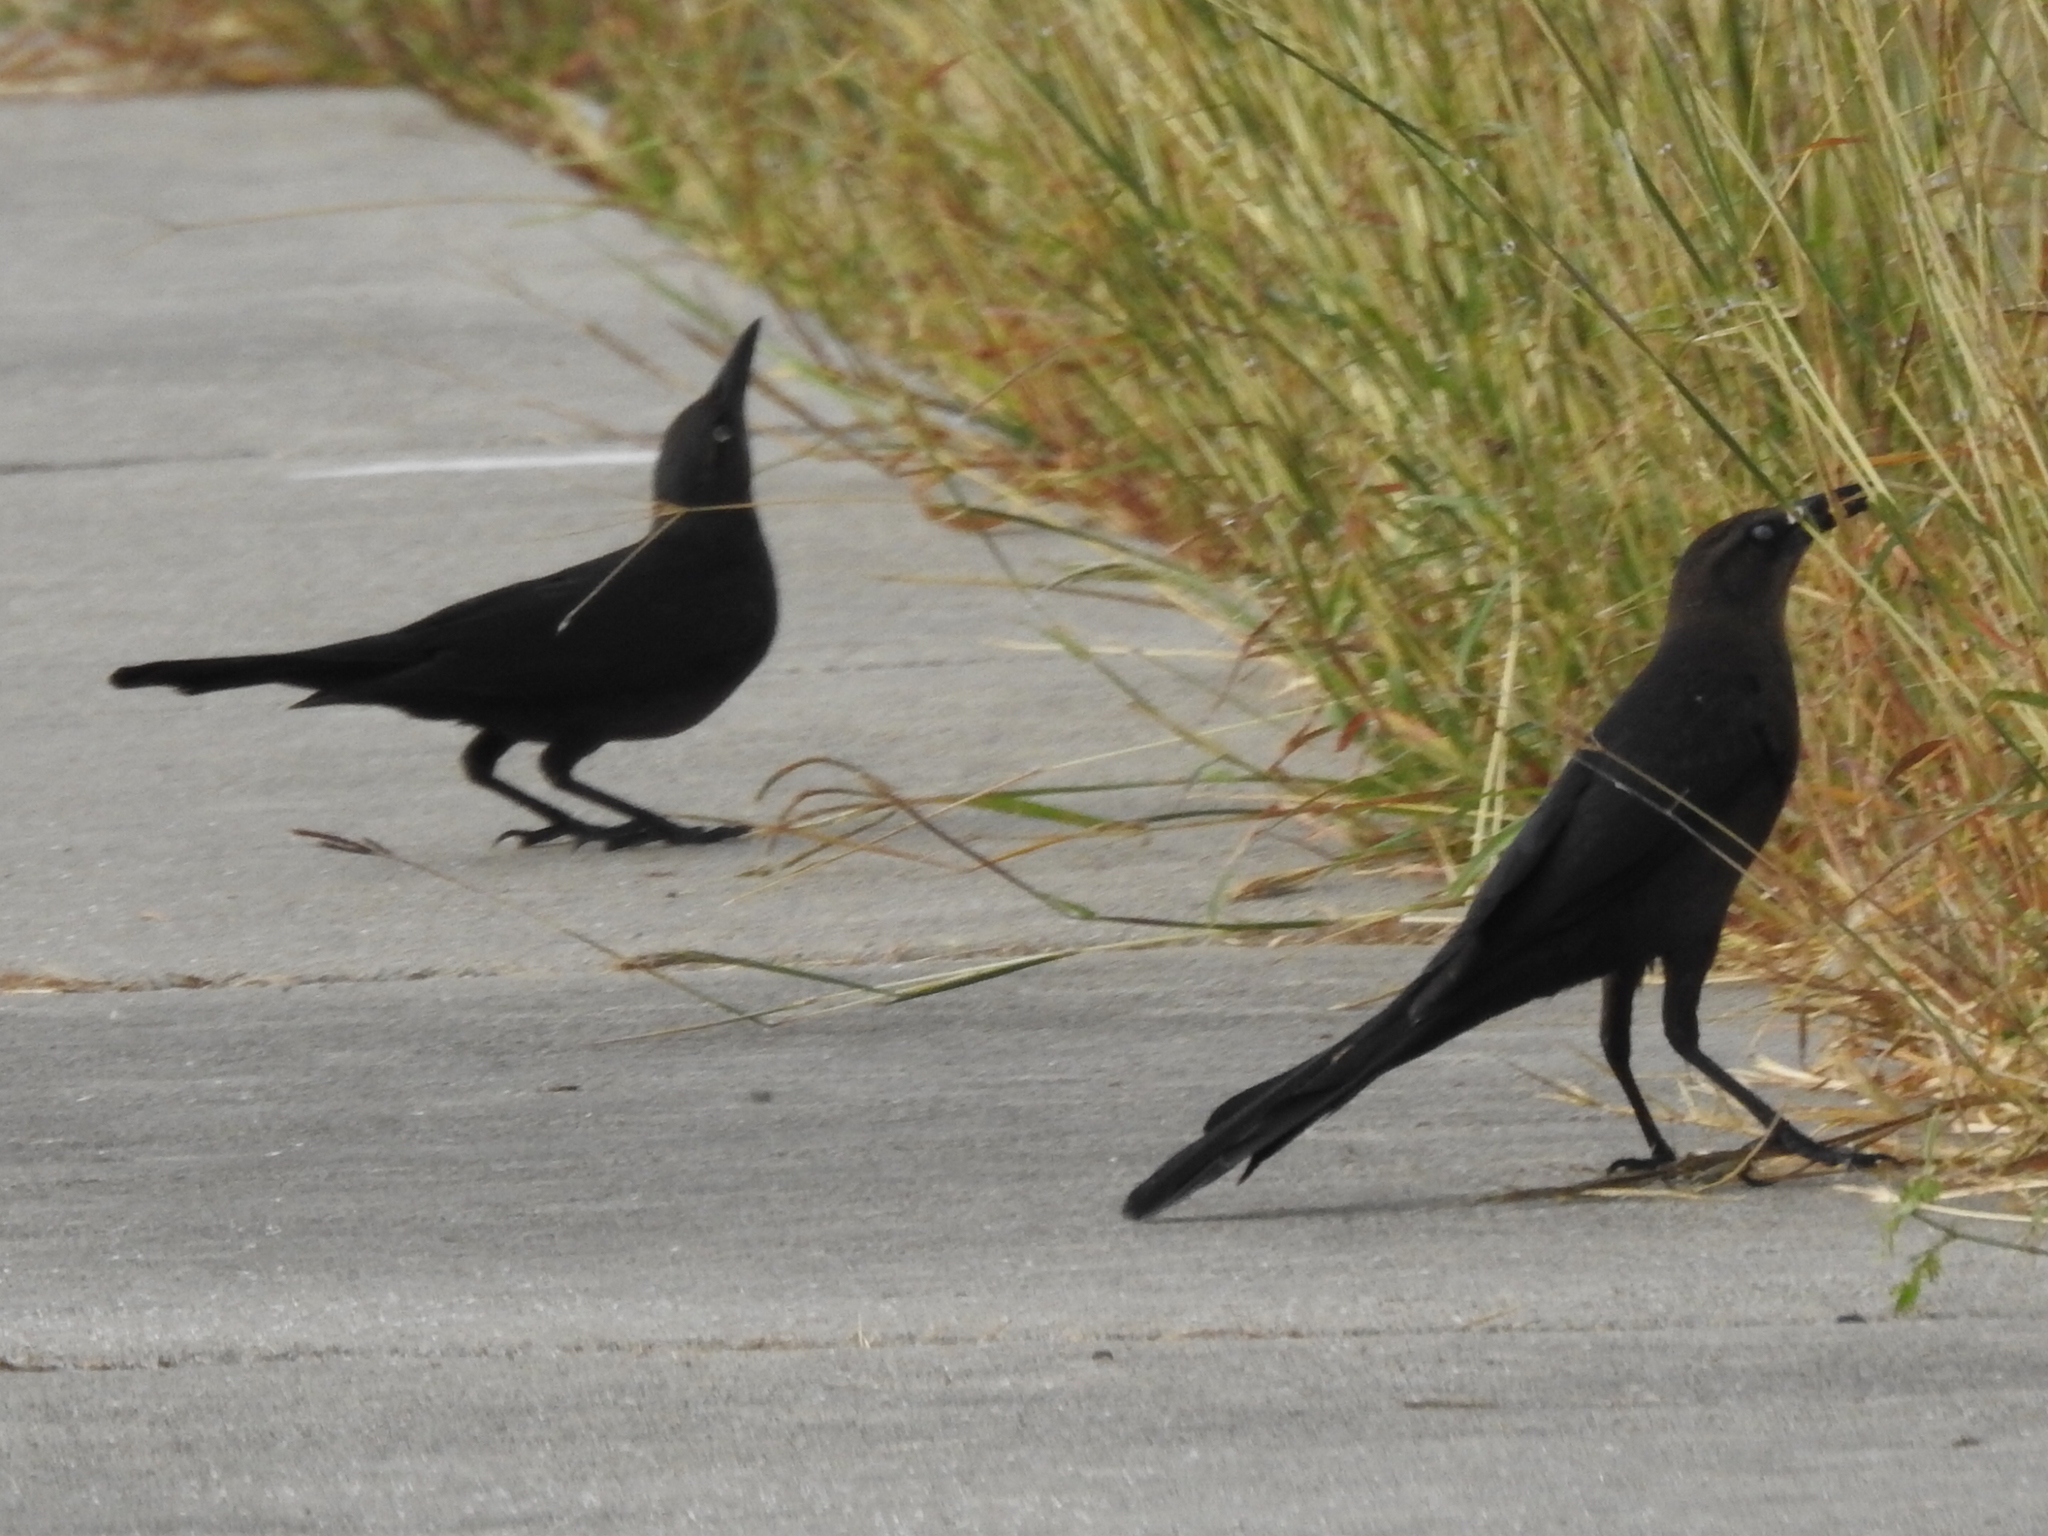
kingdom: Animalia
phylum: Chordata
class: Aves
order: Passeriformes
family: Icteridae
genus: Quiscalus
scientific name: Quiscalus mexicanus
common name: Great-tailed grackle
